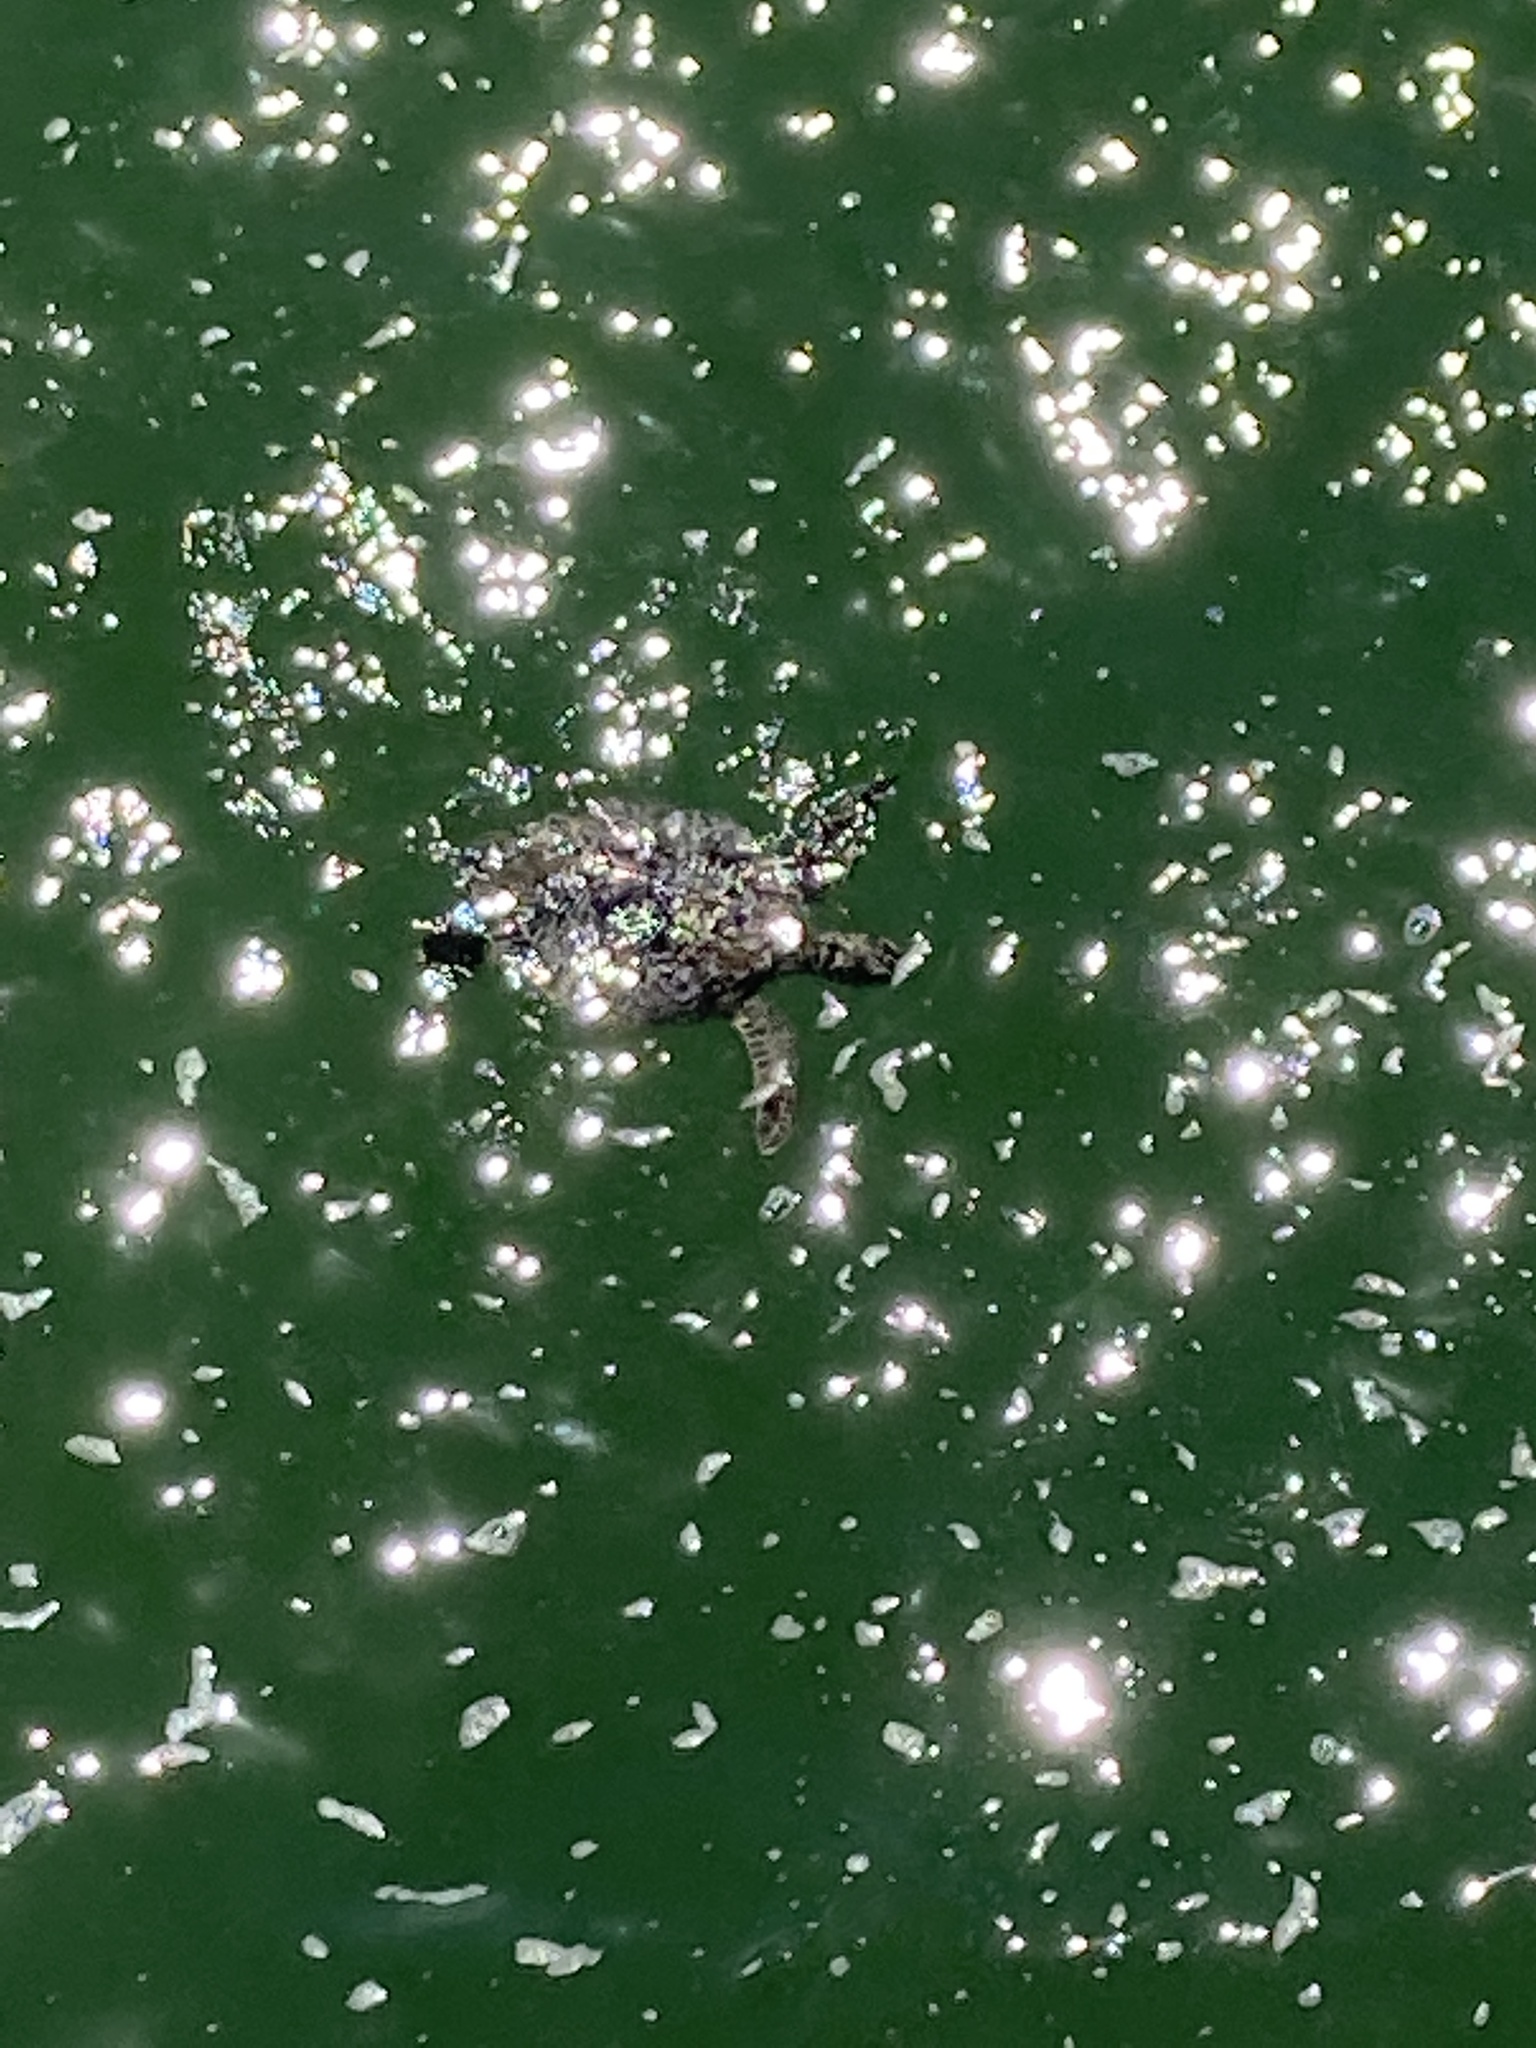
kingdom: Animalia
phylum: Chordata
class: Testudines
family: Cheloniidae
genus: Chelonia
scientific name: Chelonia mydas
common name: Green turtle
